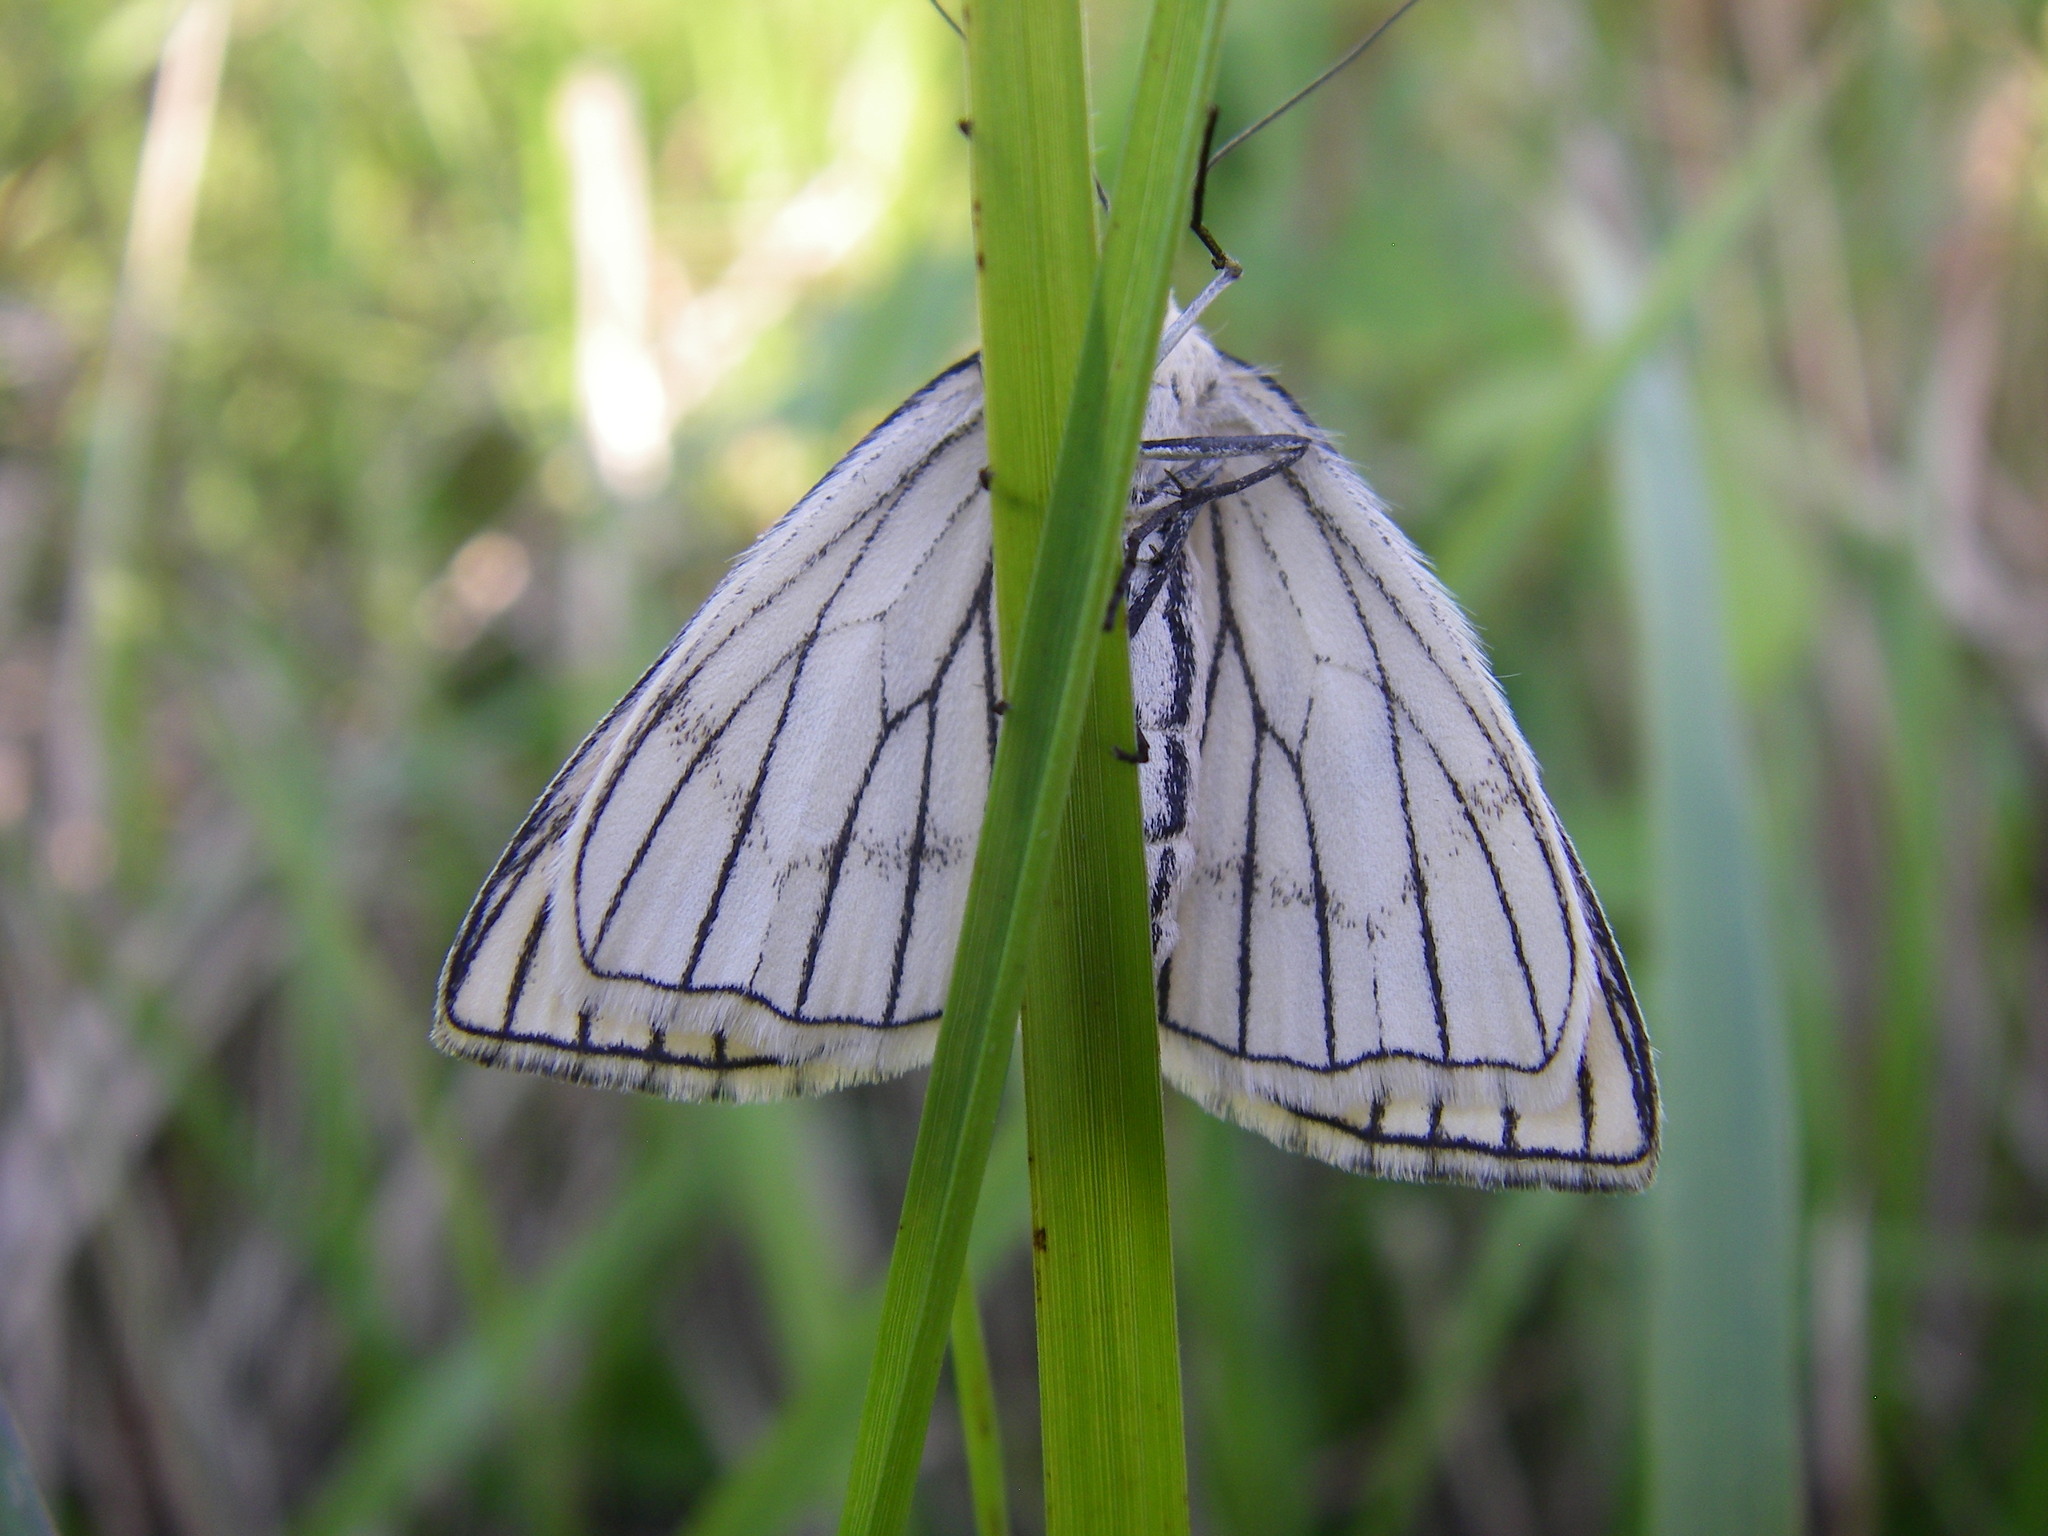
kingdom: Animalia
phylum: Arthropoda
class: Insecta
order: Lepidoptera
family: Geometridae
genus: Siona
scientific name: Siona lineata
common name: Black-veined moth
